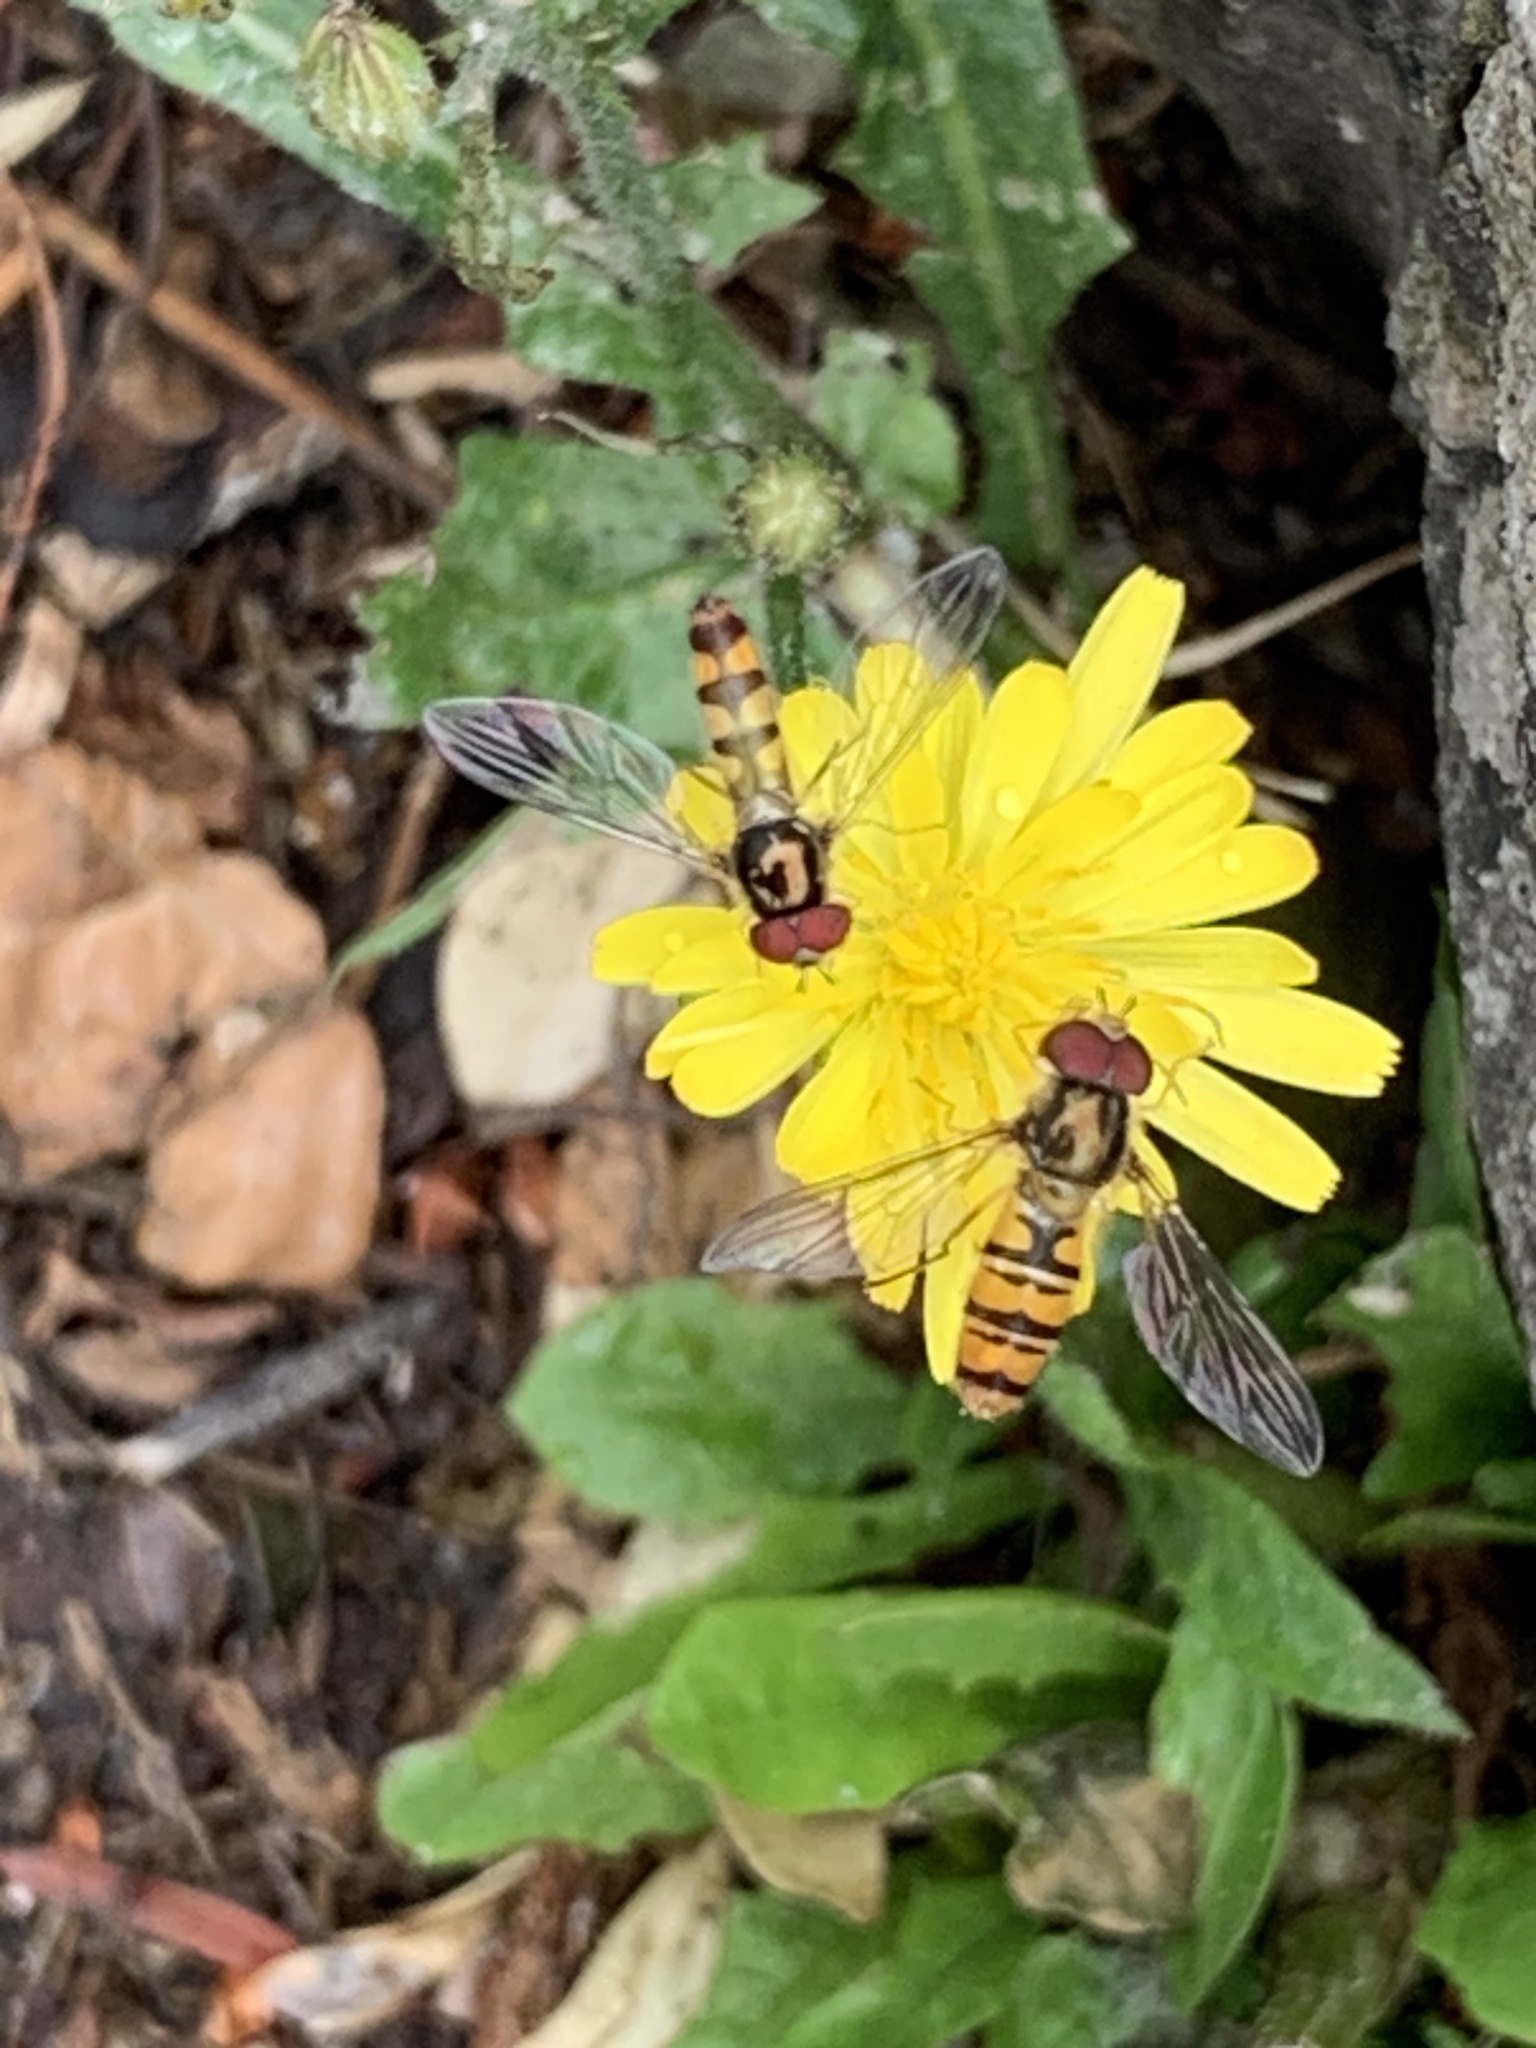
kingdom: Animalia
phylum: Arthropoda
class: Insecta
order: Diptera
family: Syrphidae
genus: Episyrphus
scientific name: Episyrphus balteatus
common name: Marmalade hoverfly
